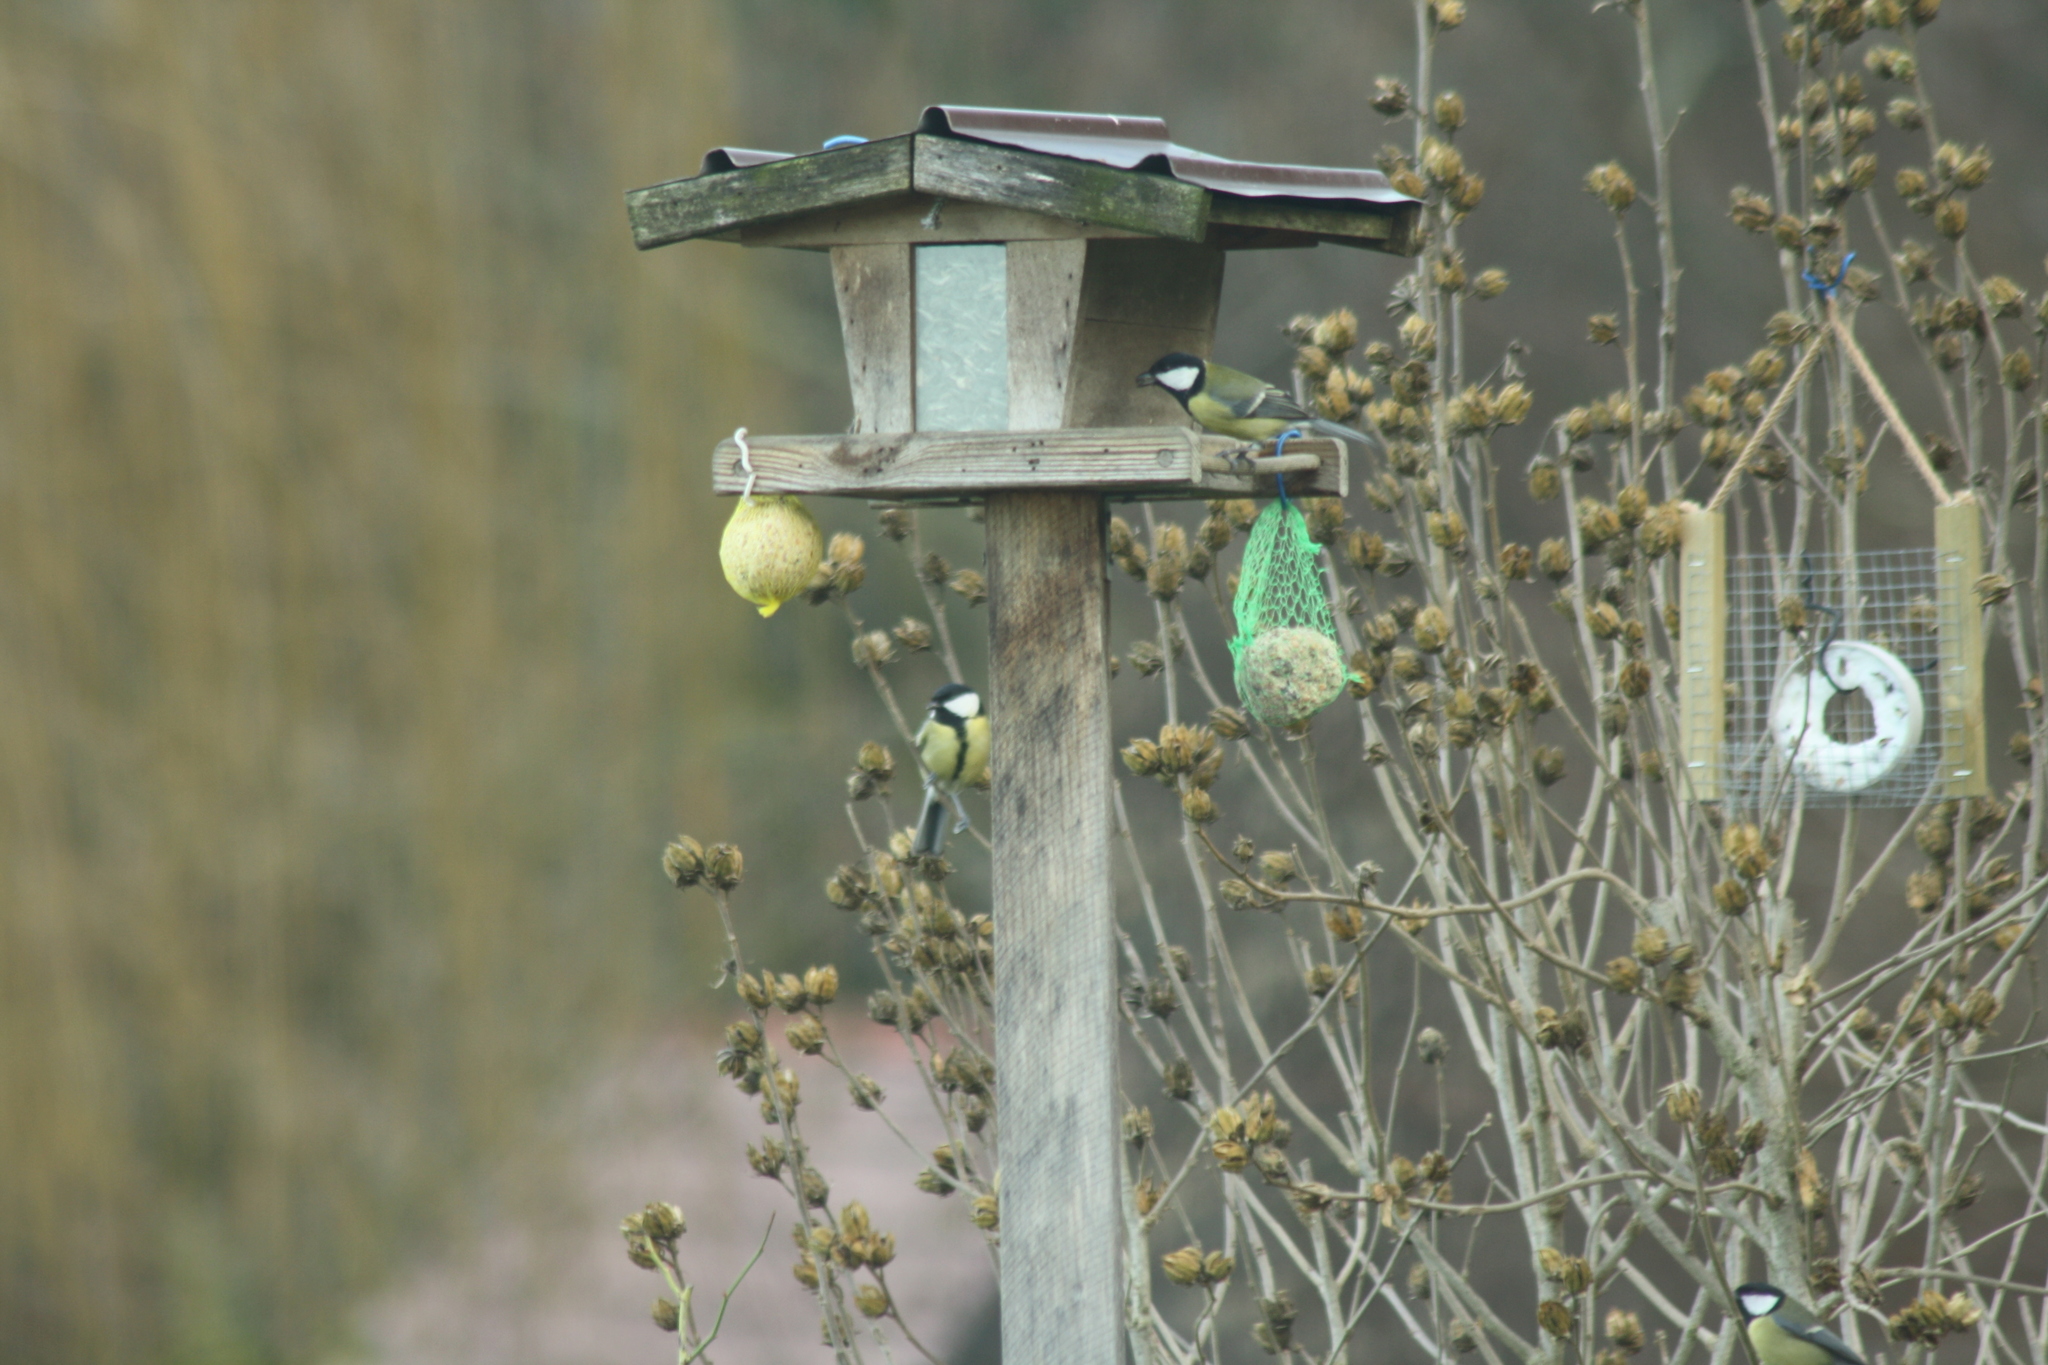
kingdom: Animalia
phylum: Chordata
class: Aves
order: Passeriformes
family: Paridae
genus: Parus
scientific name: Parus major
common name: Great tit
